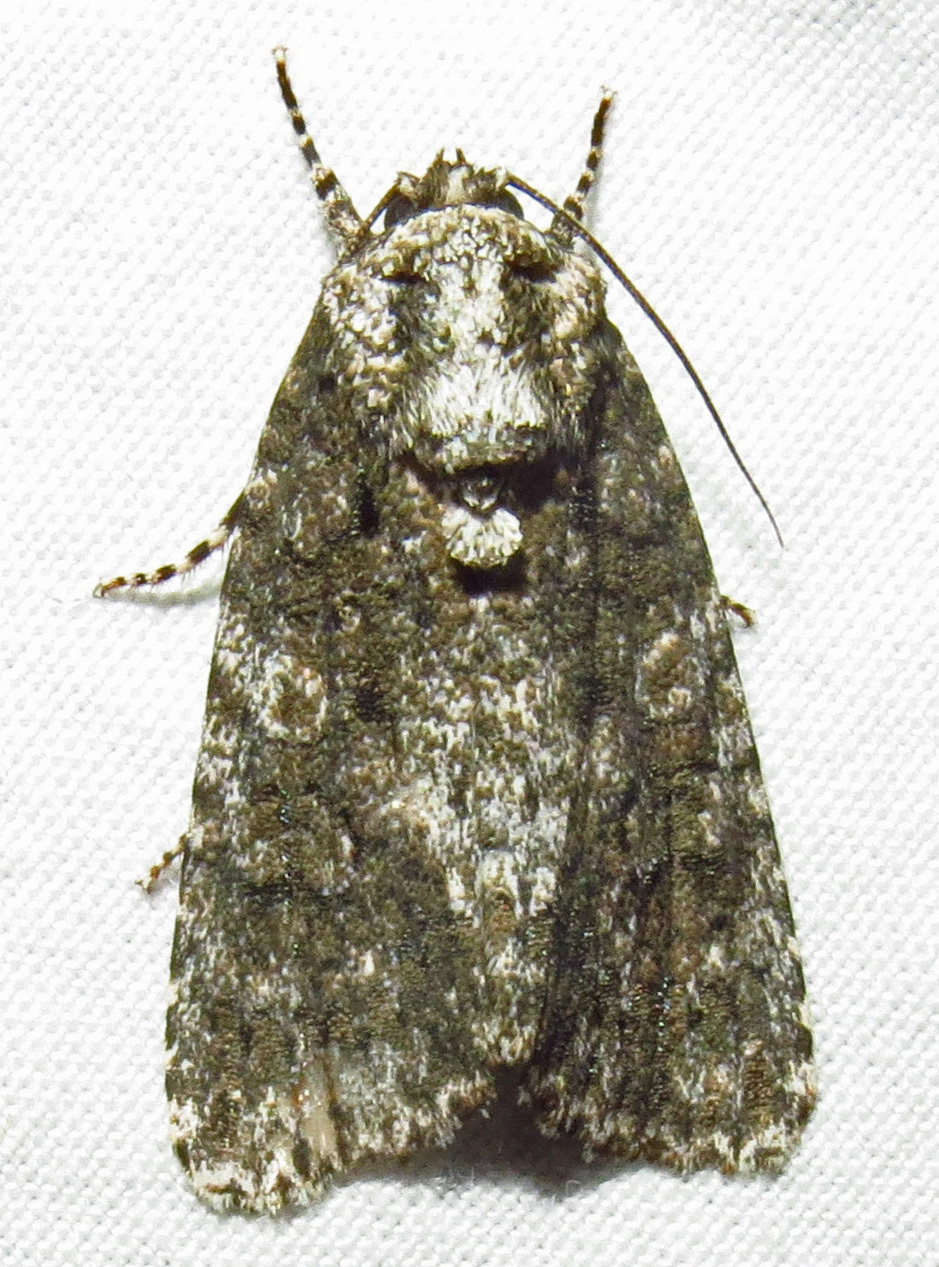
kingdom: Animalia
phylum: Arthropoda
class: Insecta
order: Lepidoptera
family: Noctuidae
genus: Acronicta
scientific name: Acronicta afflicta
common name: Afflicted dagger moth
